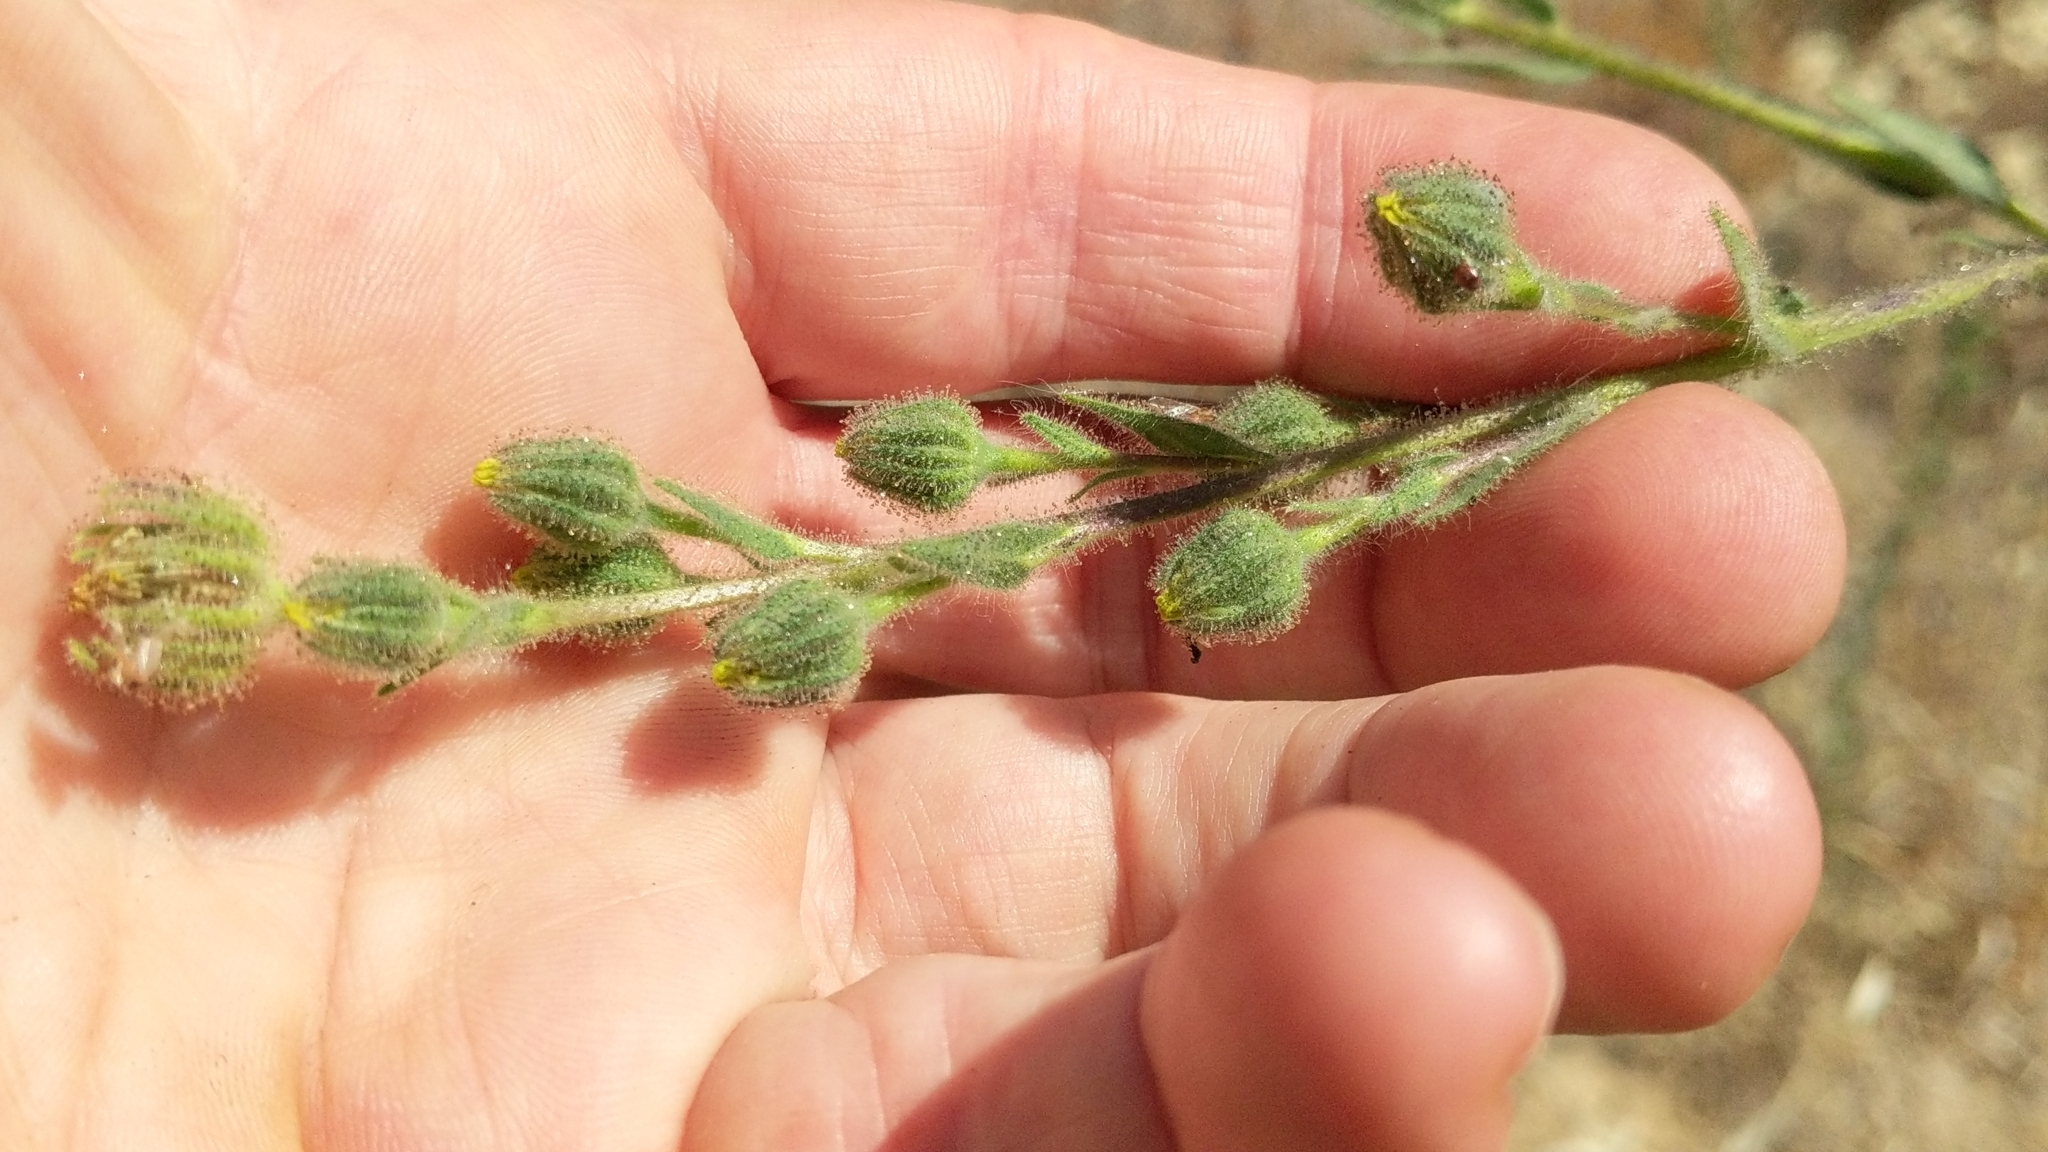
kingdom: Plantae
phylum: Tracheophyta
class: Magnoliopsida
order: Asterales
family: Asteraceae
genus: Madia
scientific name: Madia sativa
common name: Coast tarweed
